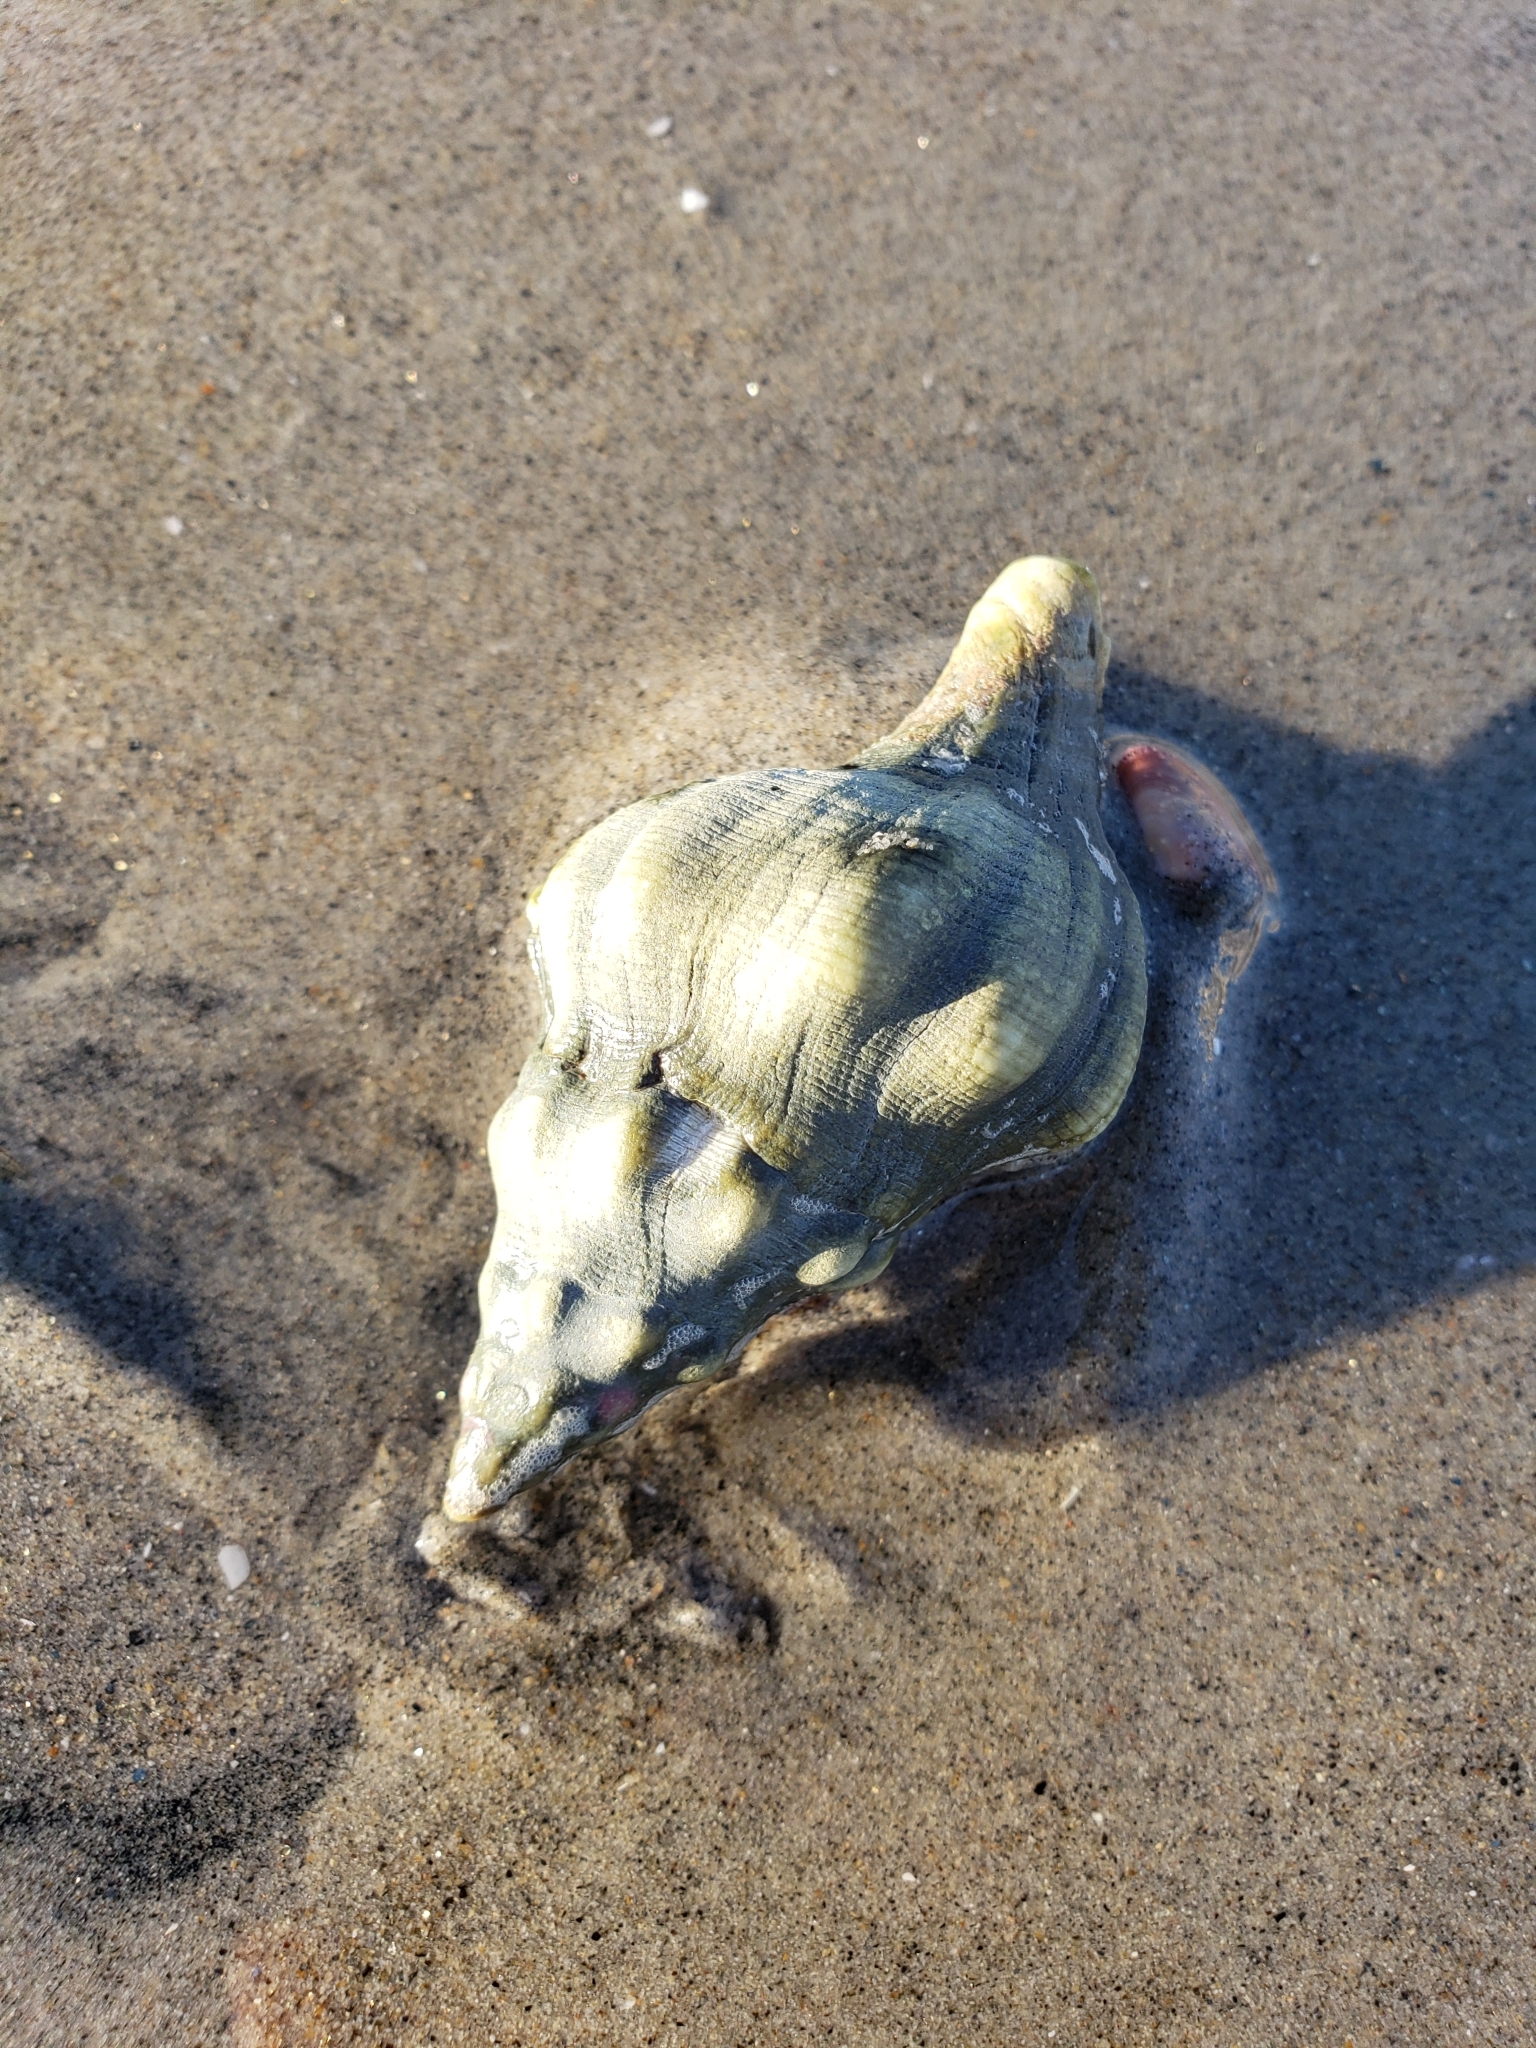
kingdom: Animalia
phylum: Mollusca
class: Gastropoda
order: Neogastropoda
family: Austrosiphonidae
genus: Kelletia
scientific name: Kelletia kelletii
